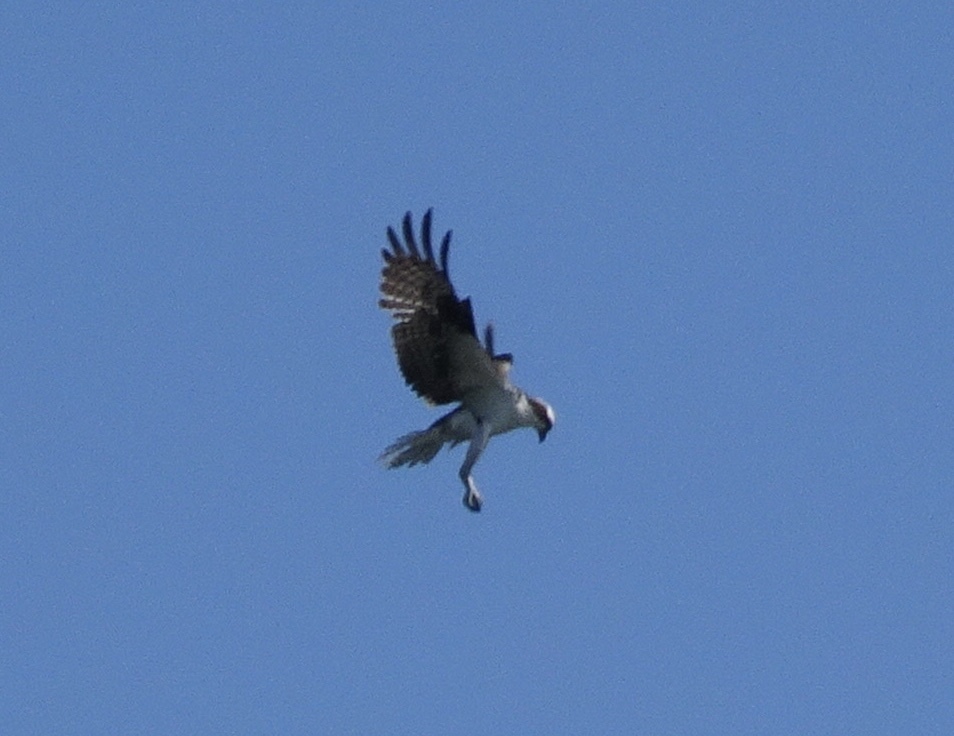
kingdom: Animalia
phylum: Chordata
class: Aves
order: Accipitriformes
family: Pandionidae
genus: Pandion
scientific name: Pandion haliaetus
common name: Osprey
